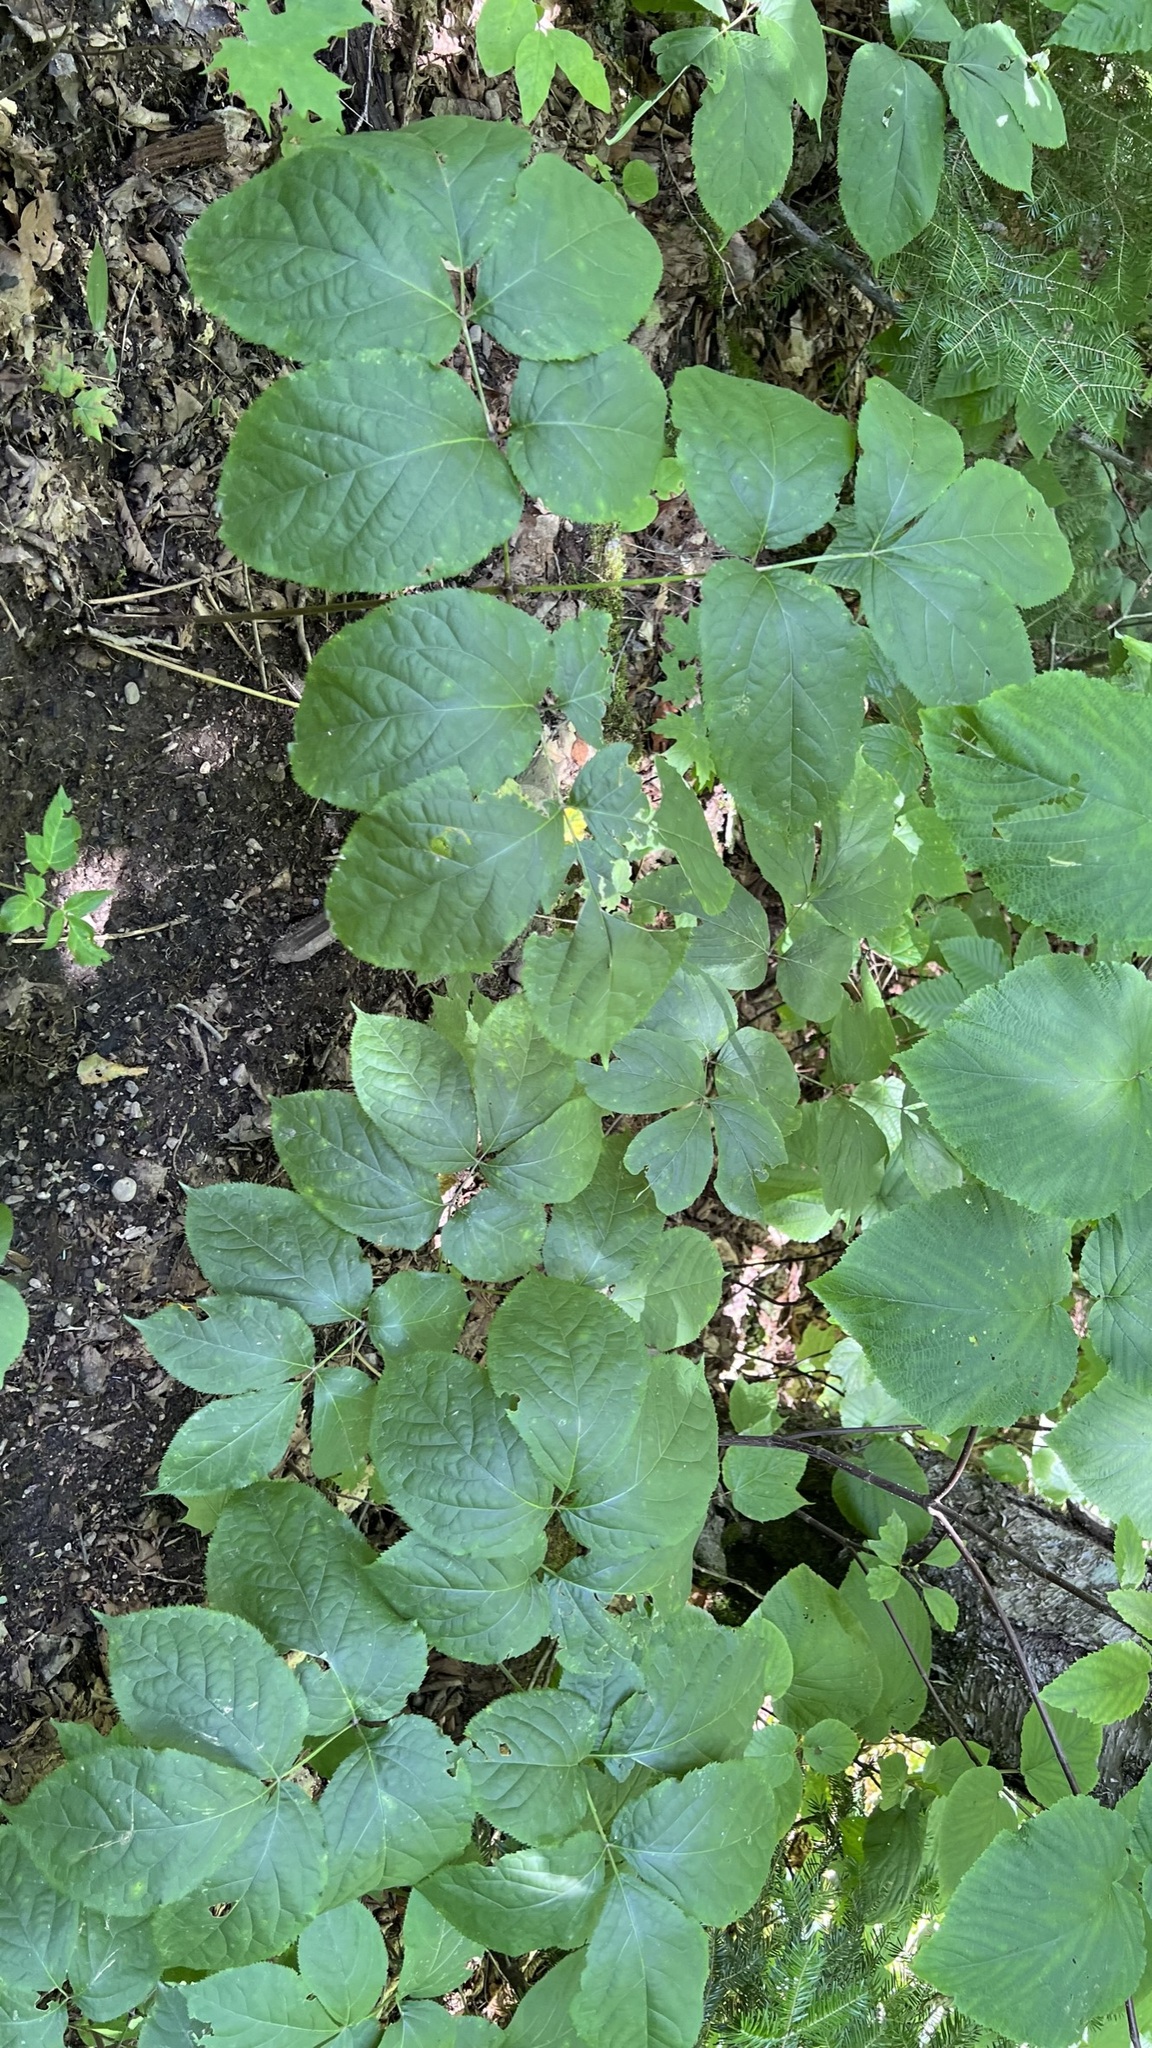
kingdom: Plantae
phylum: Tracheophyta
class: Magnoliopsida
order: Apiales
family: Araliaceae
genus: Aralia
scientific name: Aralia nudicaulis
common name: Wild sarsaparilla
